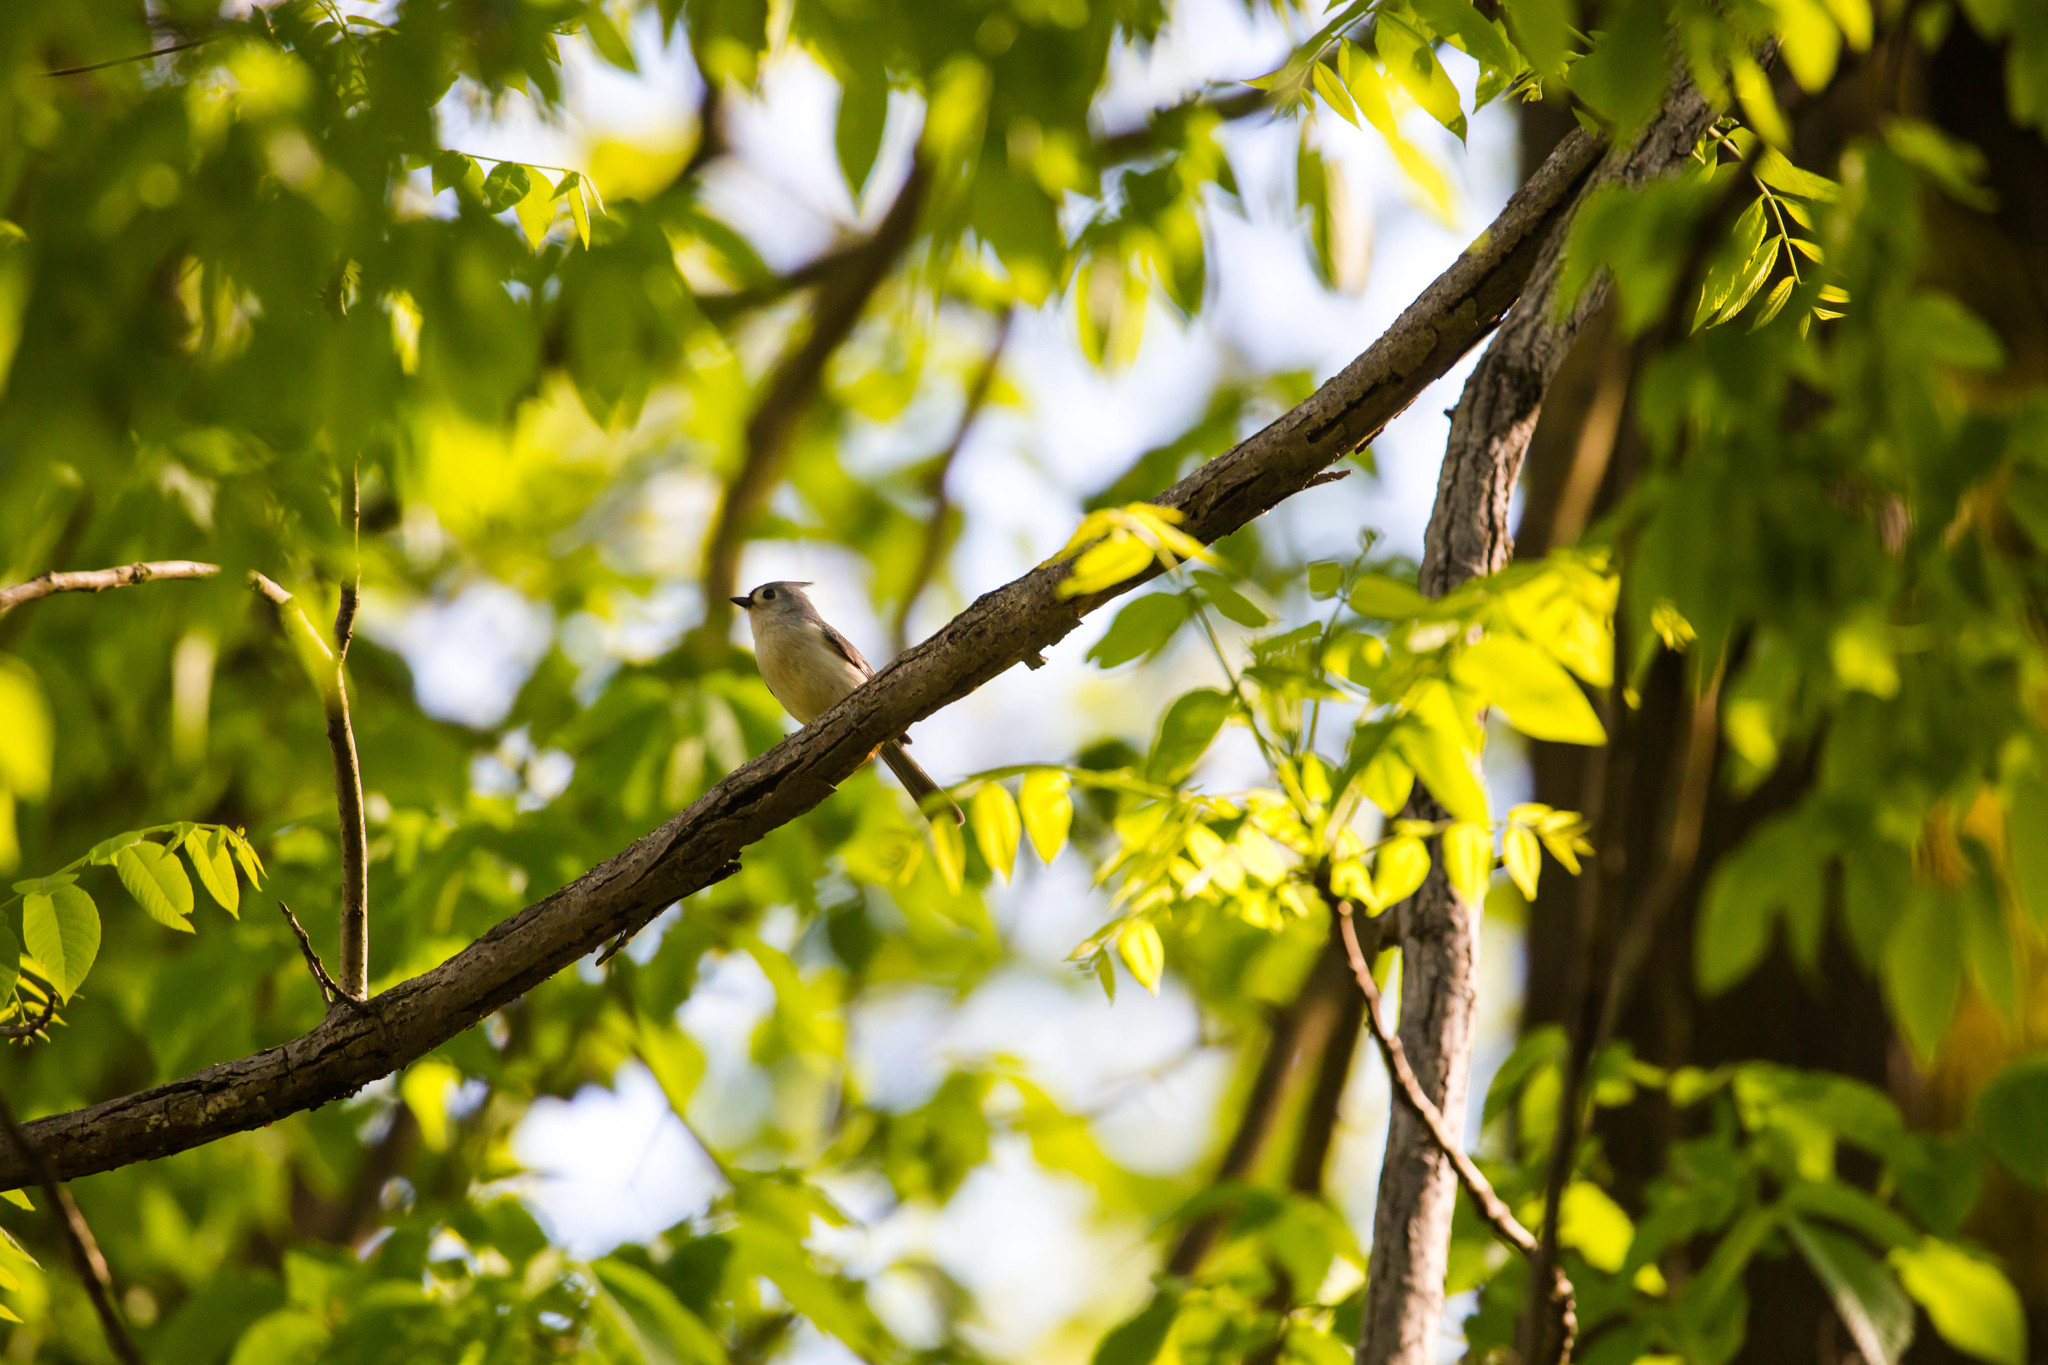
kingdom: Animalia
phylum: Chordata
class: Aves
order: Passeriformes
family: Paridae
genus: Baeolophus
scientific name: Baeolophus bicolor
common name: Tufted titmouse
